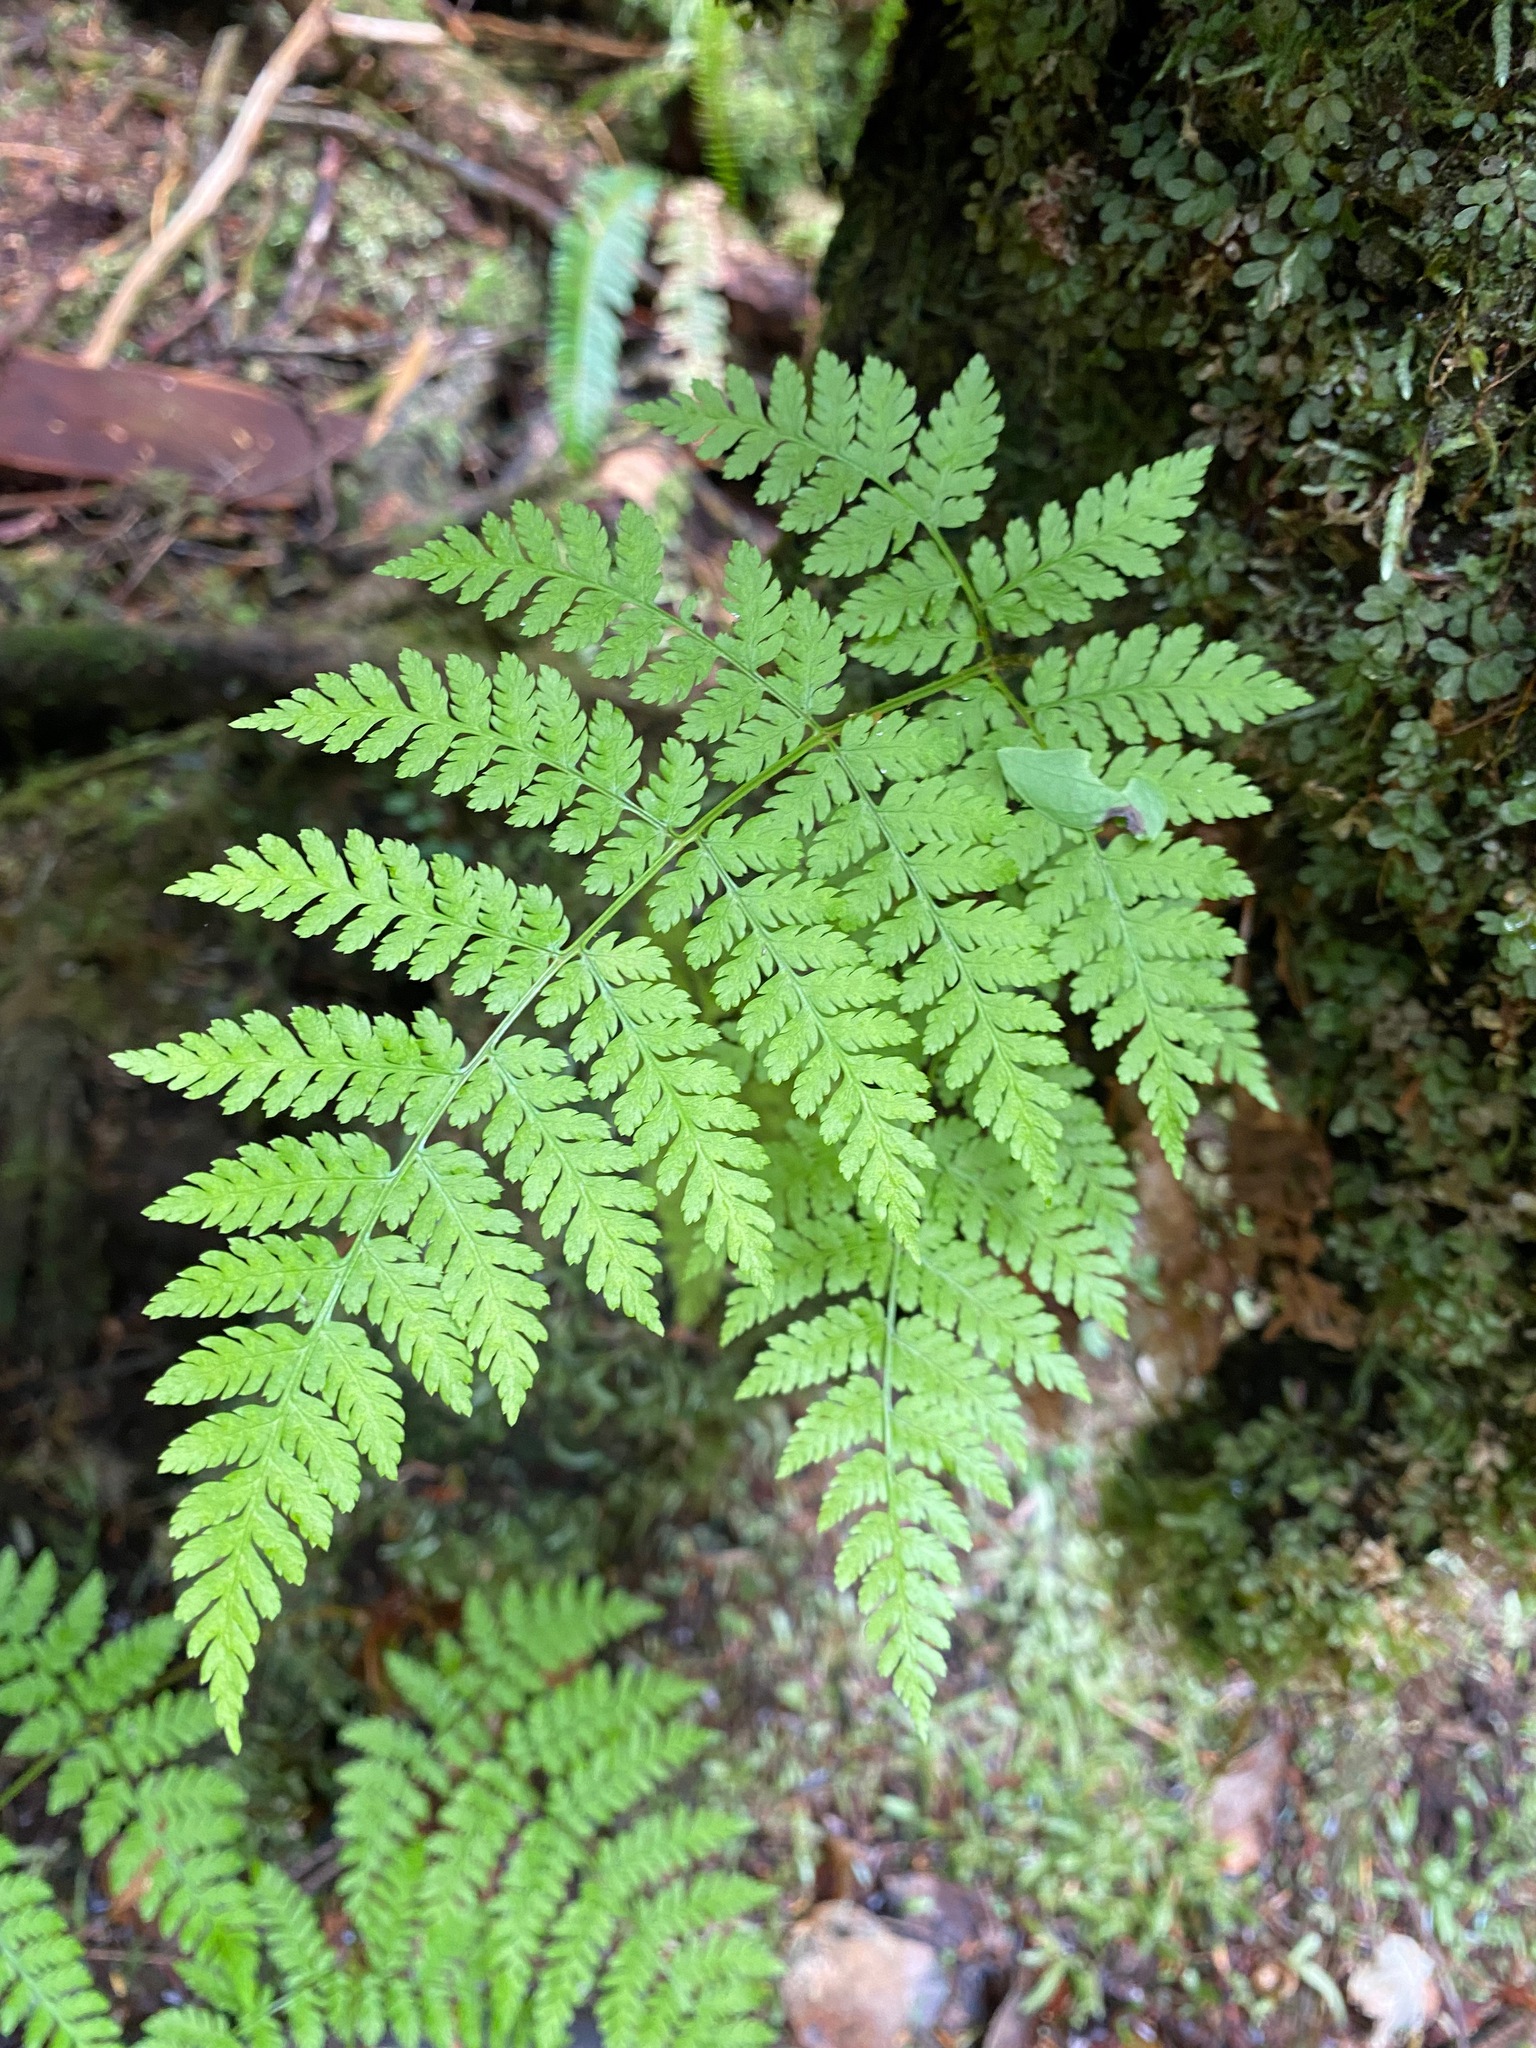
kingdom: Plantae
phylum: Tracheophyta
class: Polypodiopsida
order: Polypodiales
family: Dryopteridaceae
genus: Dryopteris
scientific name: Dryopteris expansa
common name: Northern buckler fern
